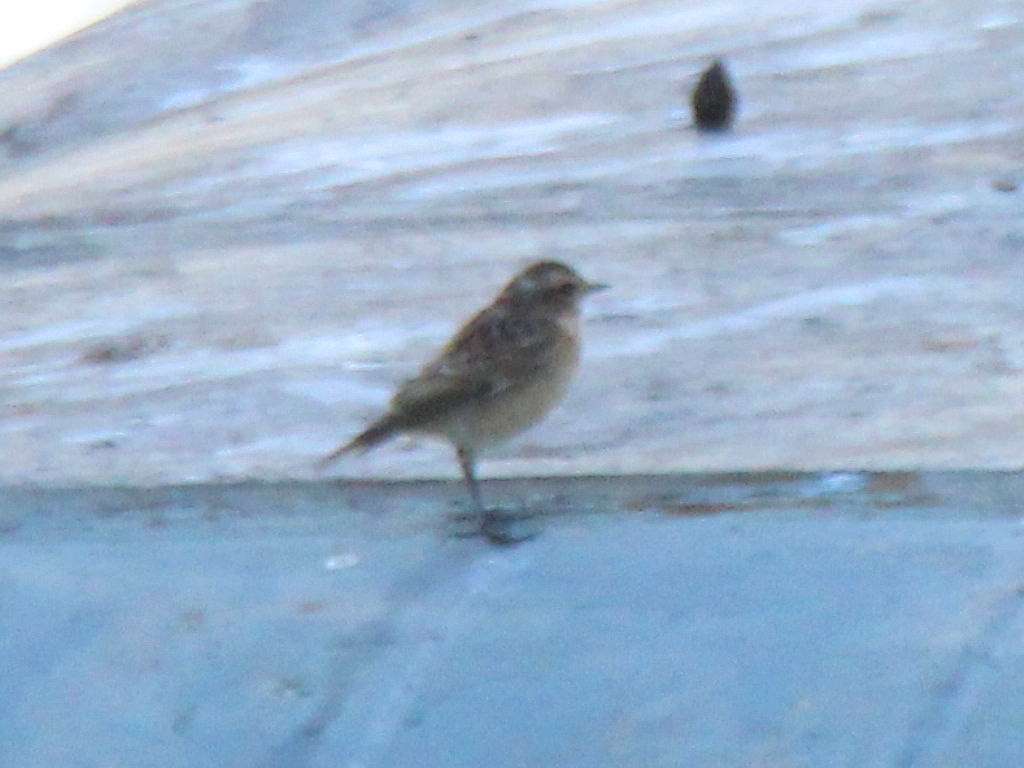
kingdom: Animalia
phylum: Chordata
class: Aves
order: Passeriformes
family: Muscicapidae
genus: Saxicola
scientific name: Saxicola rubetra
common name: Whinchat
